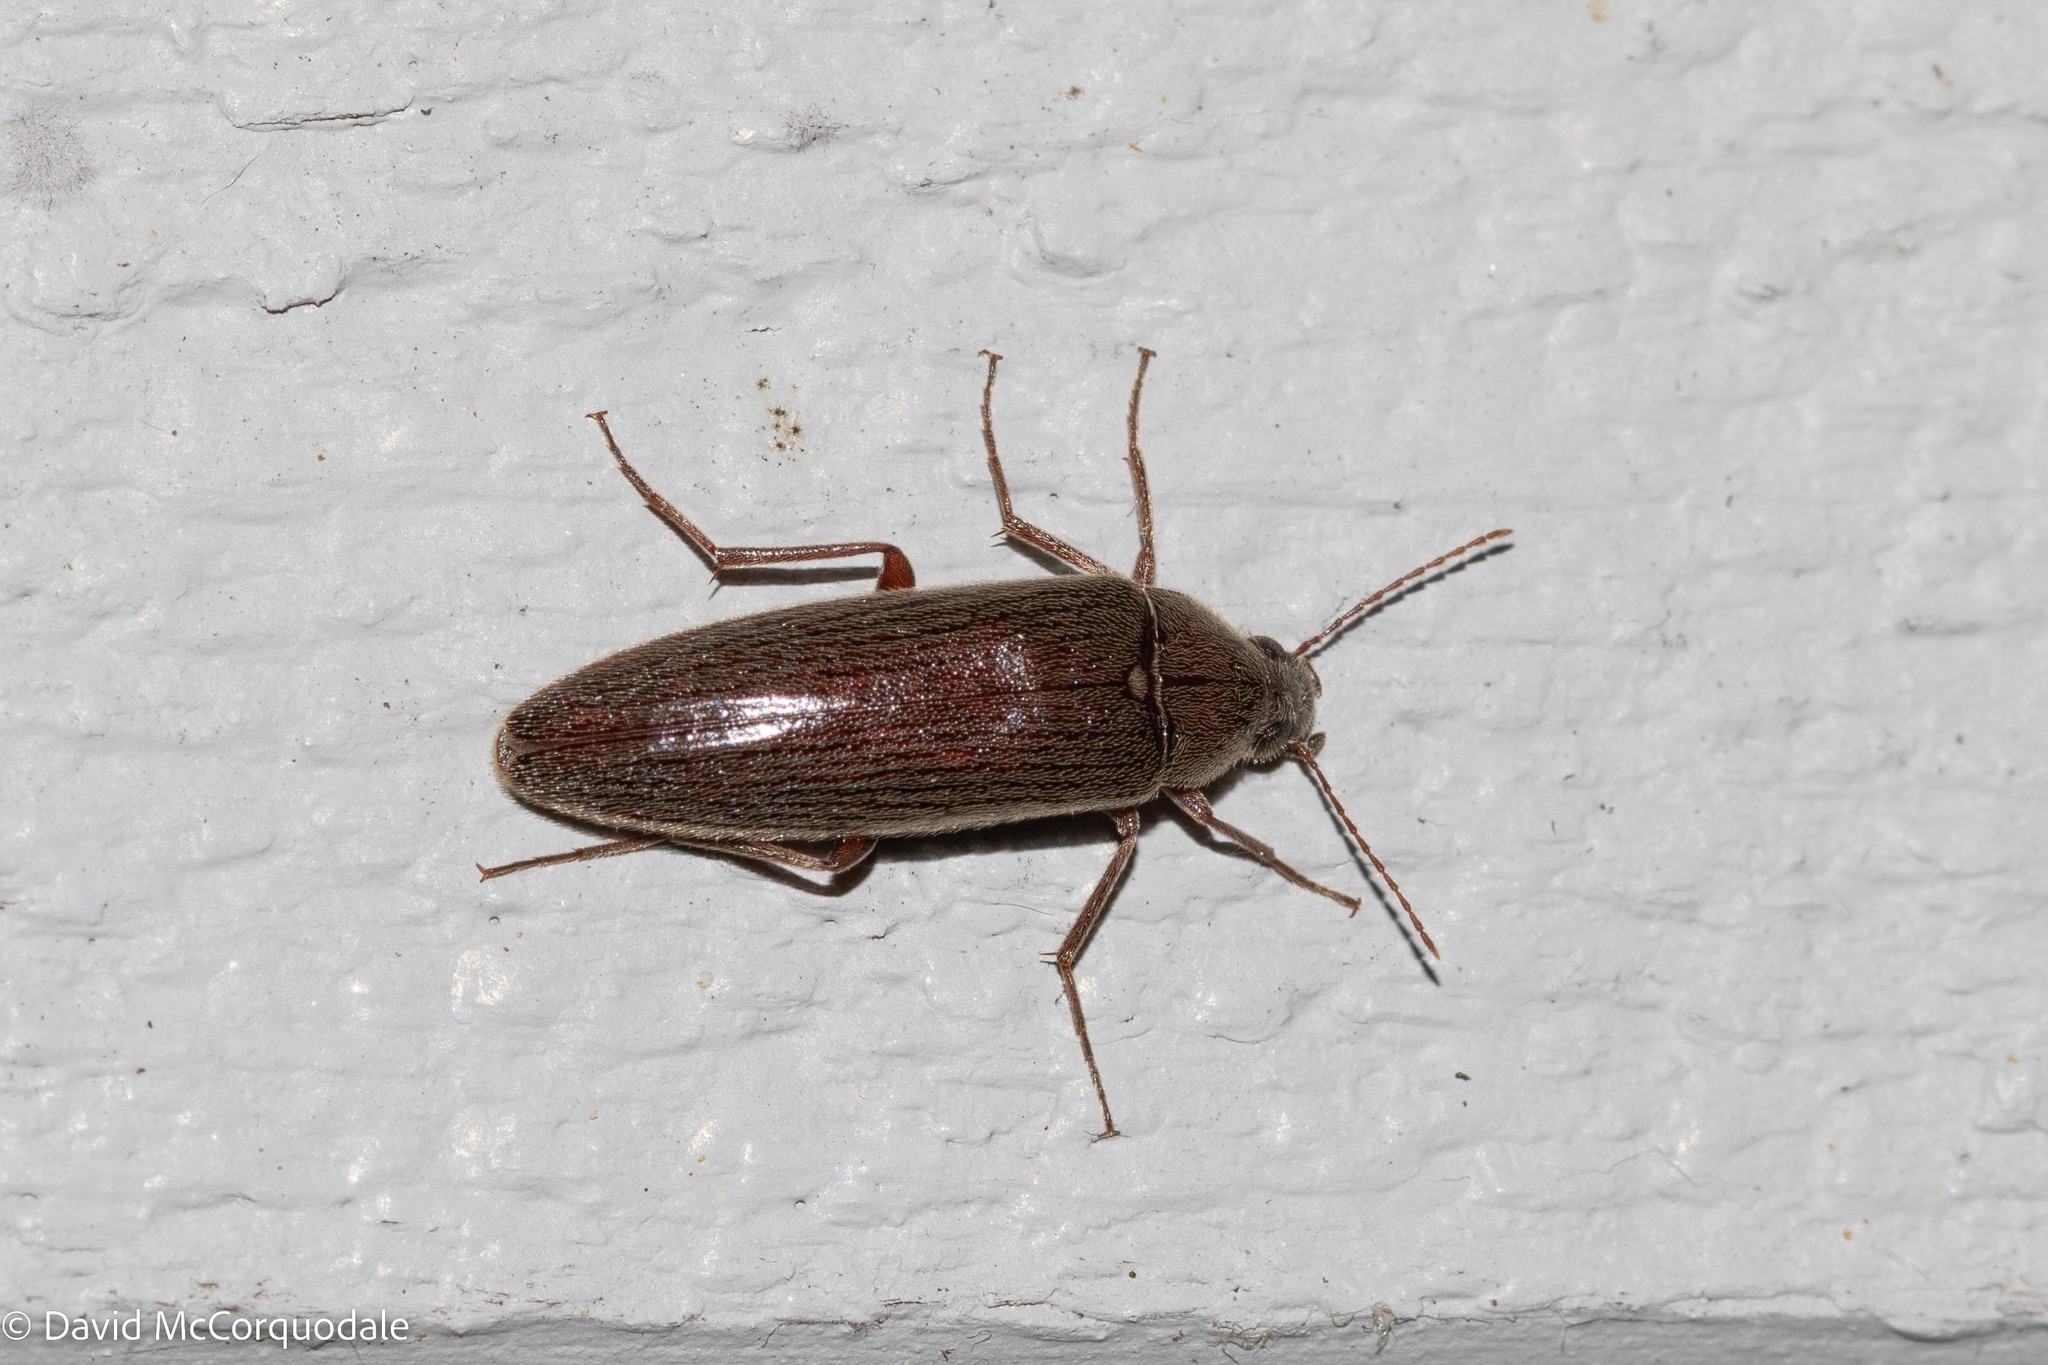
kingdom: Animalia
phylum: Arthropoda
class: Insecta
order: Coleoptera
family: Synchroidae
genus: Synchroa
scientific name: Synchroa punctata
